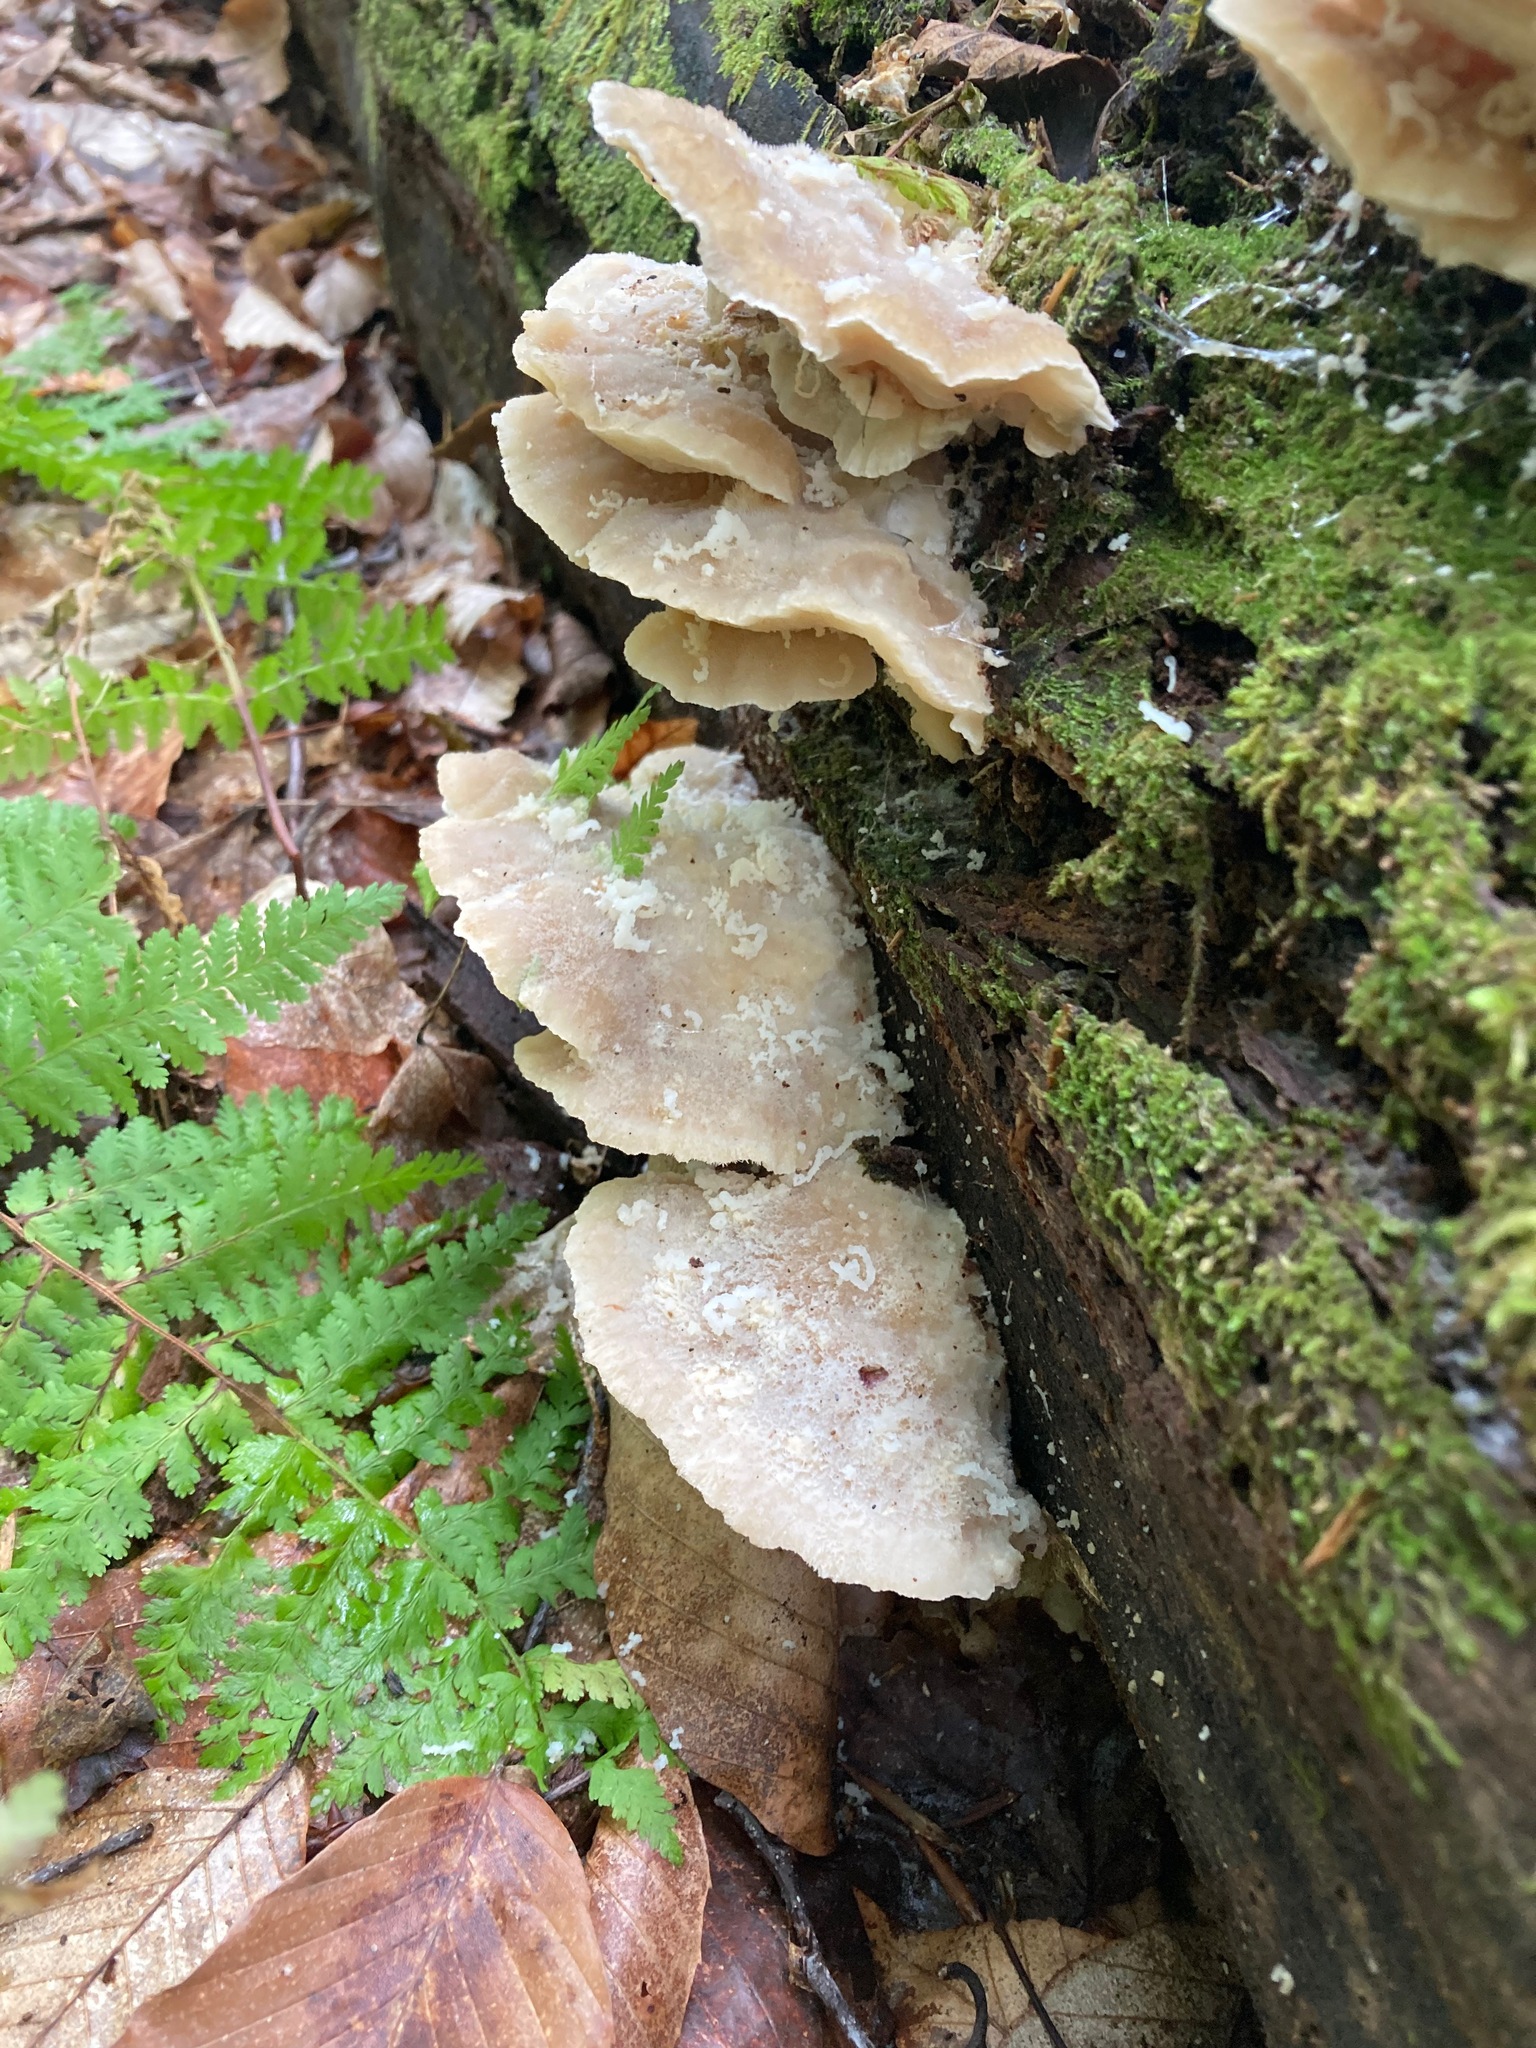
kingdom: Fungi
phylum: Basidiomycota
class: Agaricomycetes
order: Polyporales
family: Incrustoporiaceae
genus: Tyromyces
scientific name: Tyromyces chioneus
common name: White cheese polypore
